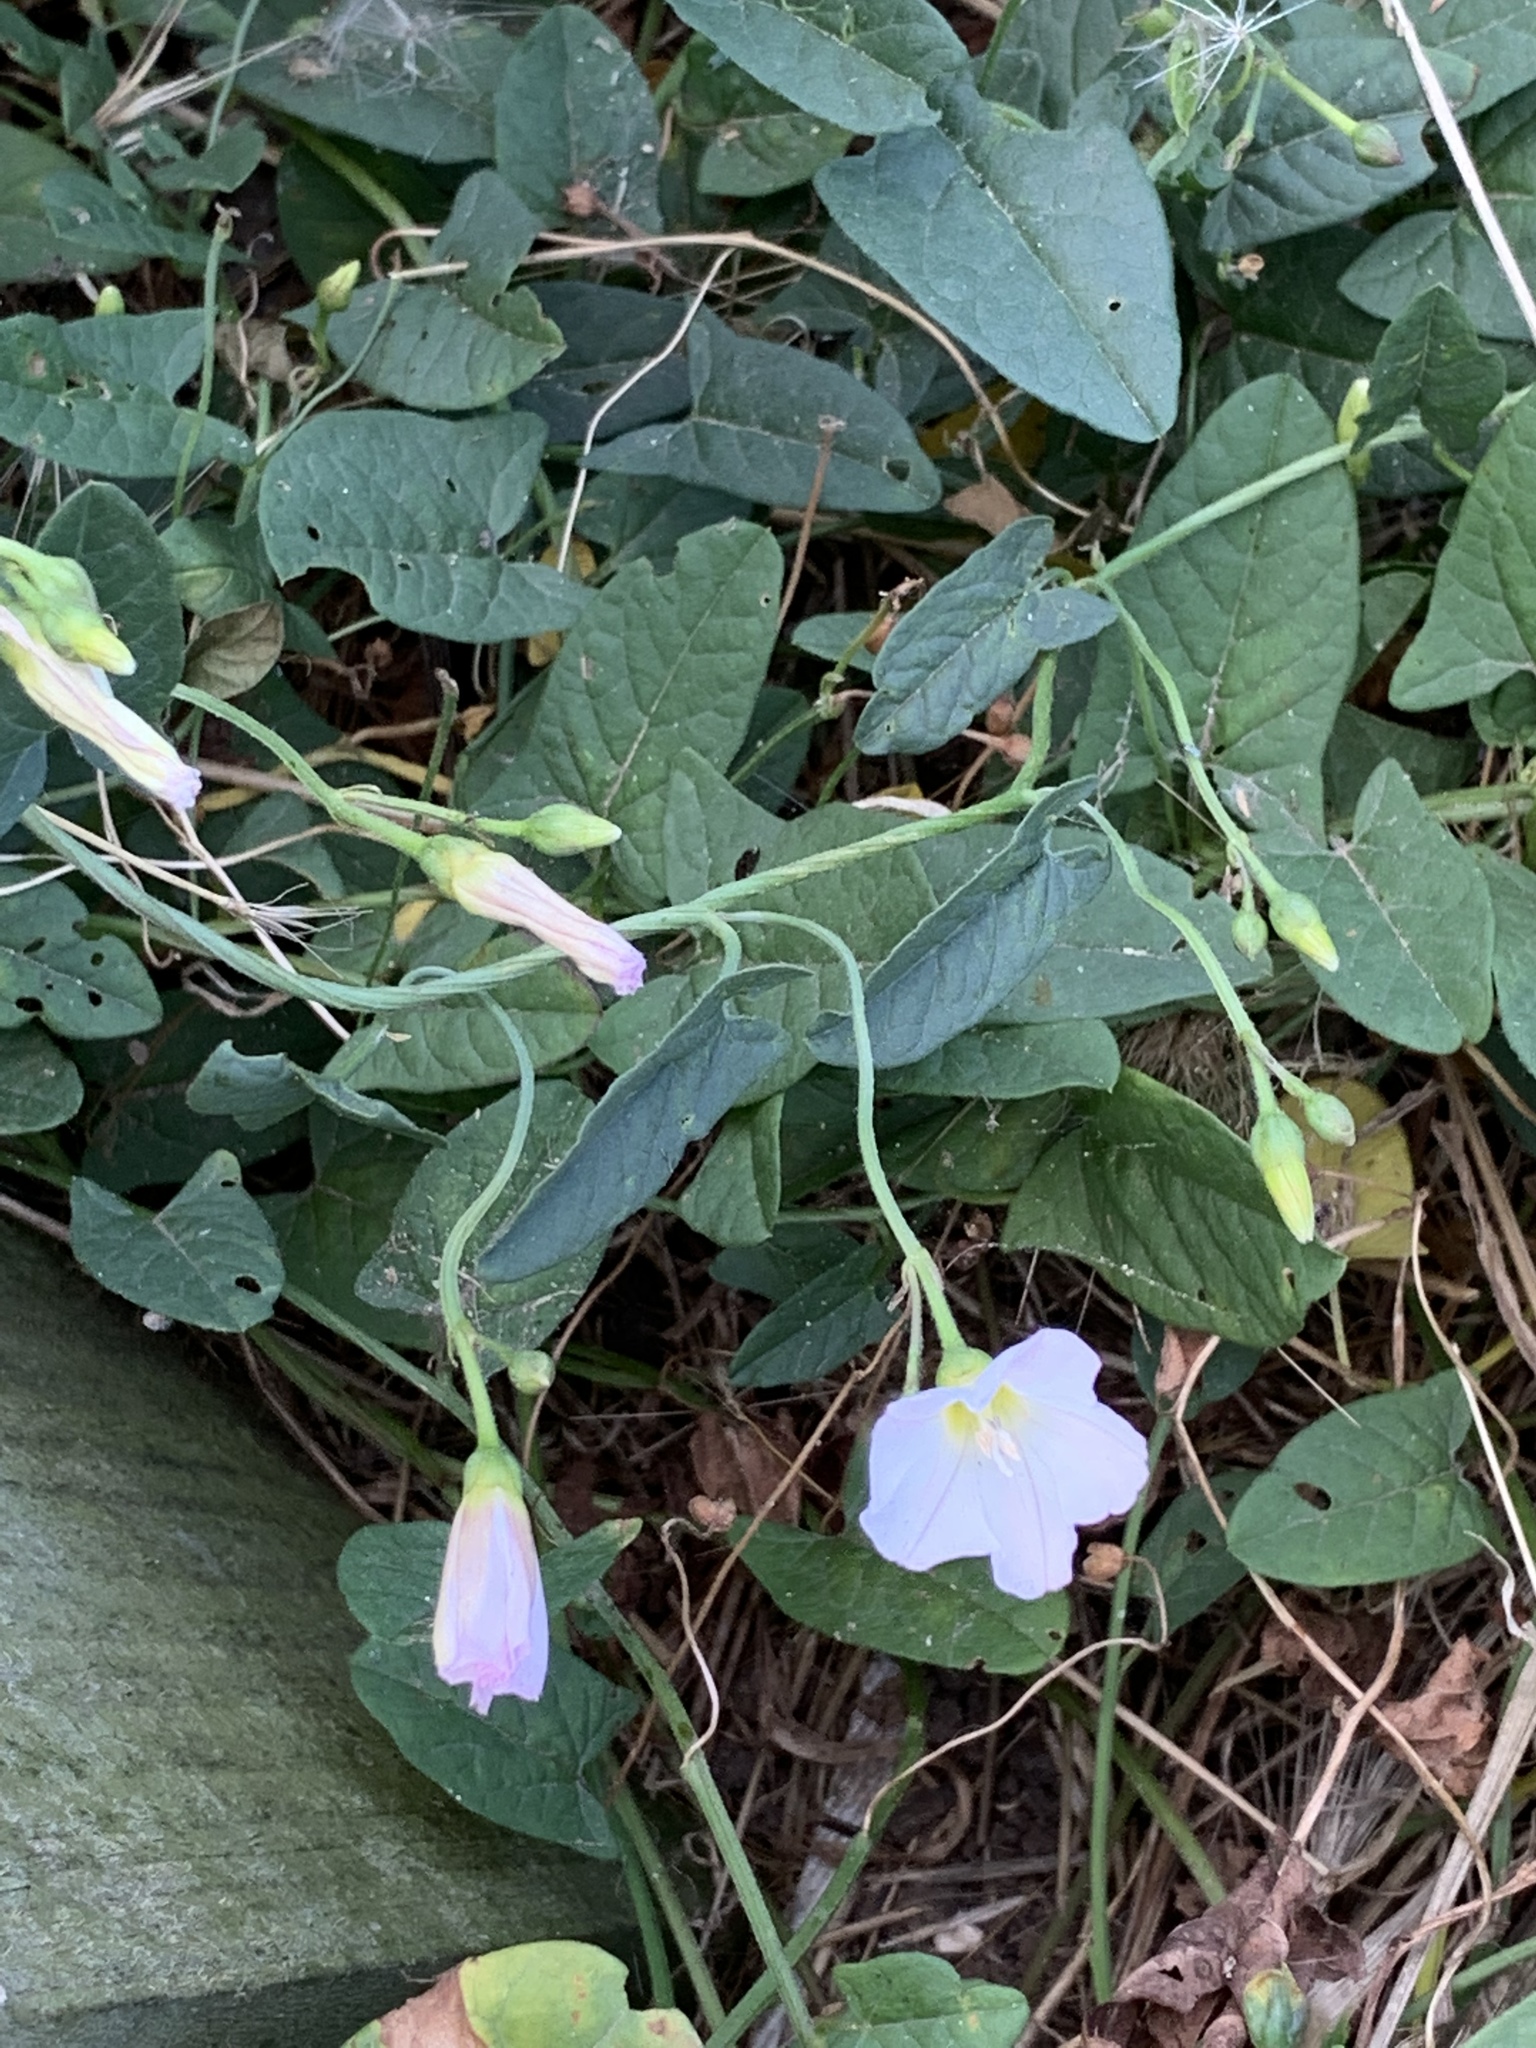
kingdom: Plantae
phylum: Tracheophyta
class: Magnoliopsida
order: Solanales
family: Convolvulaceae
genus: Convolvulus
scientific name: Convolvulus arvensis
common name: Field bindweed
